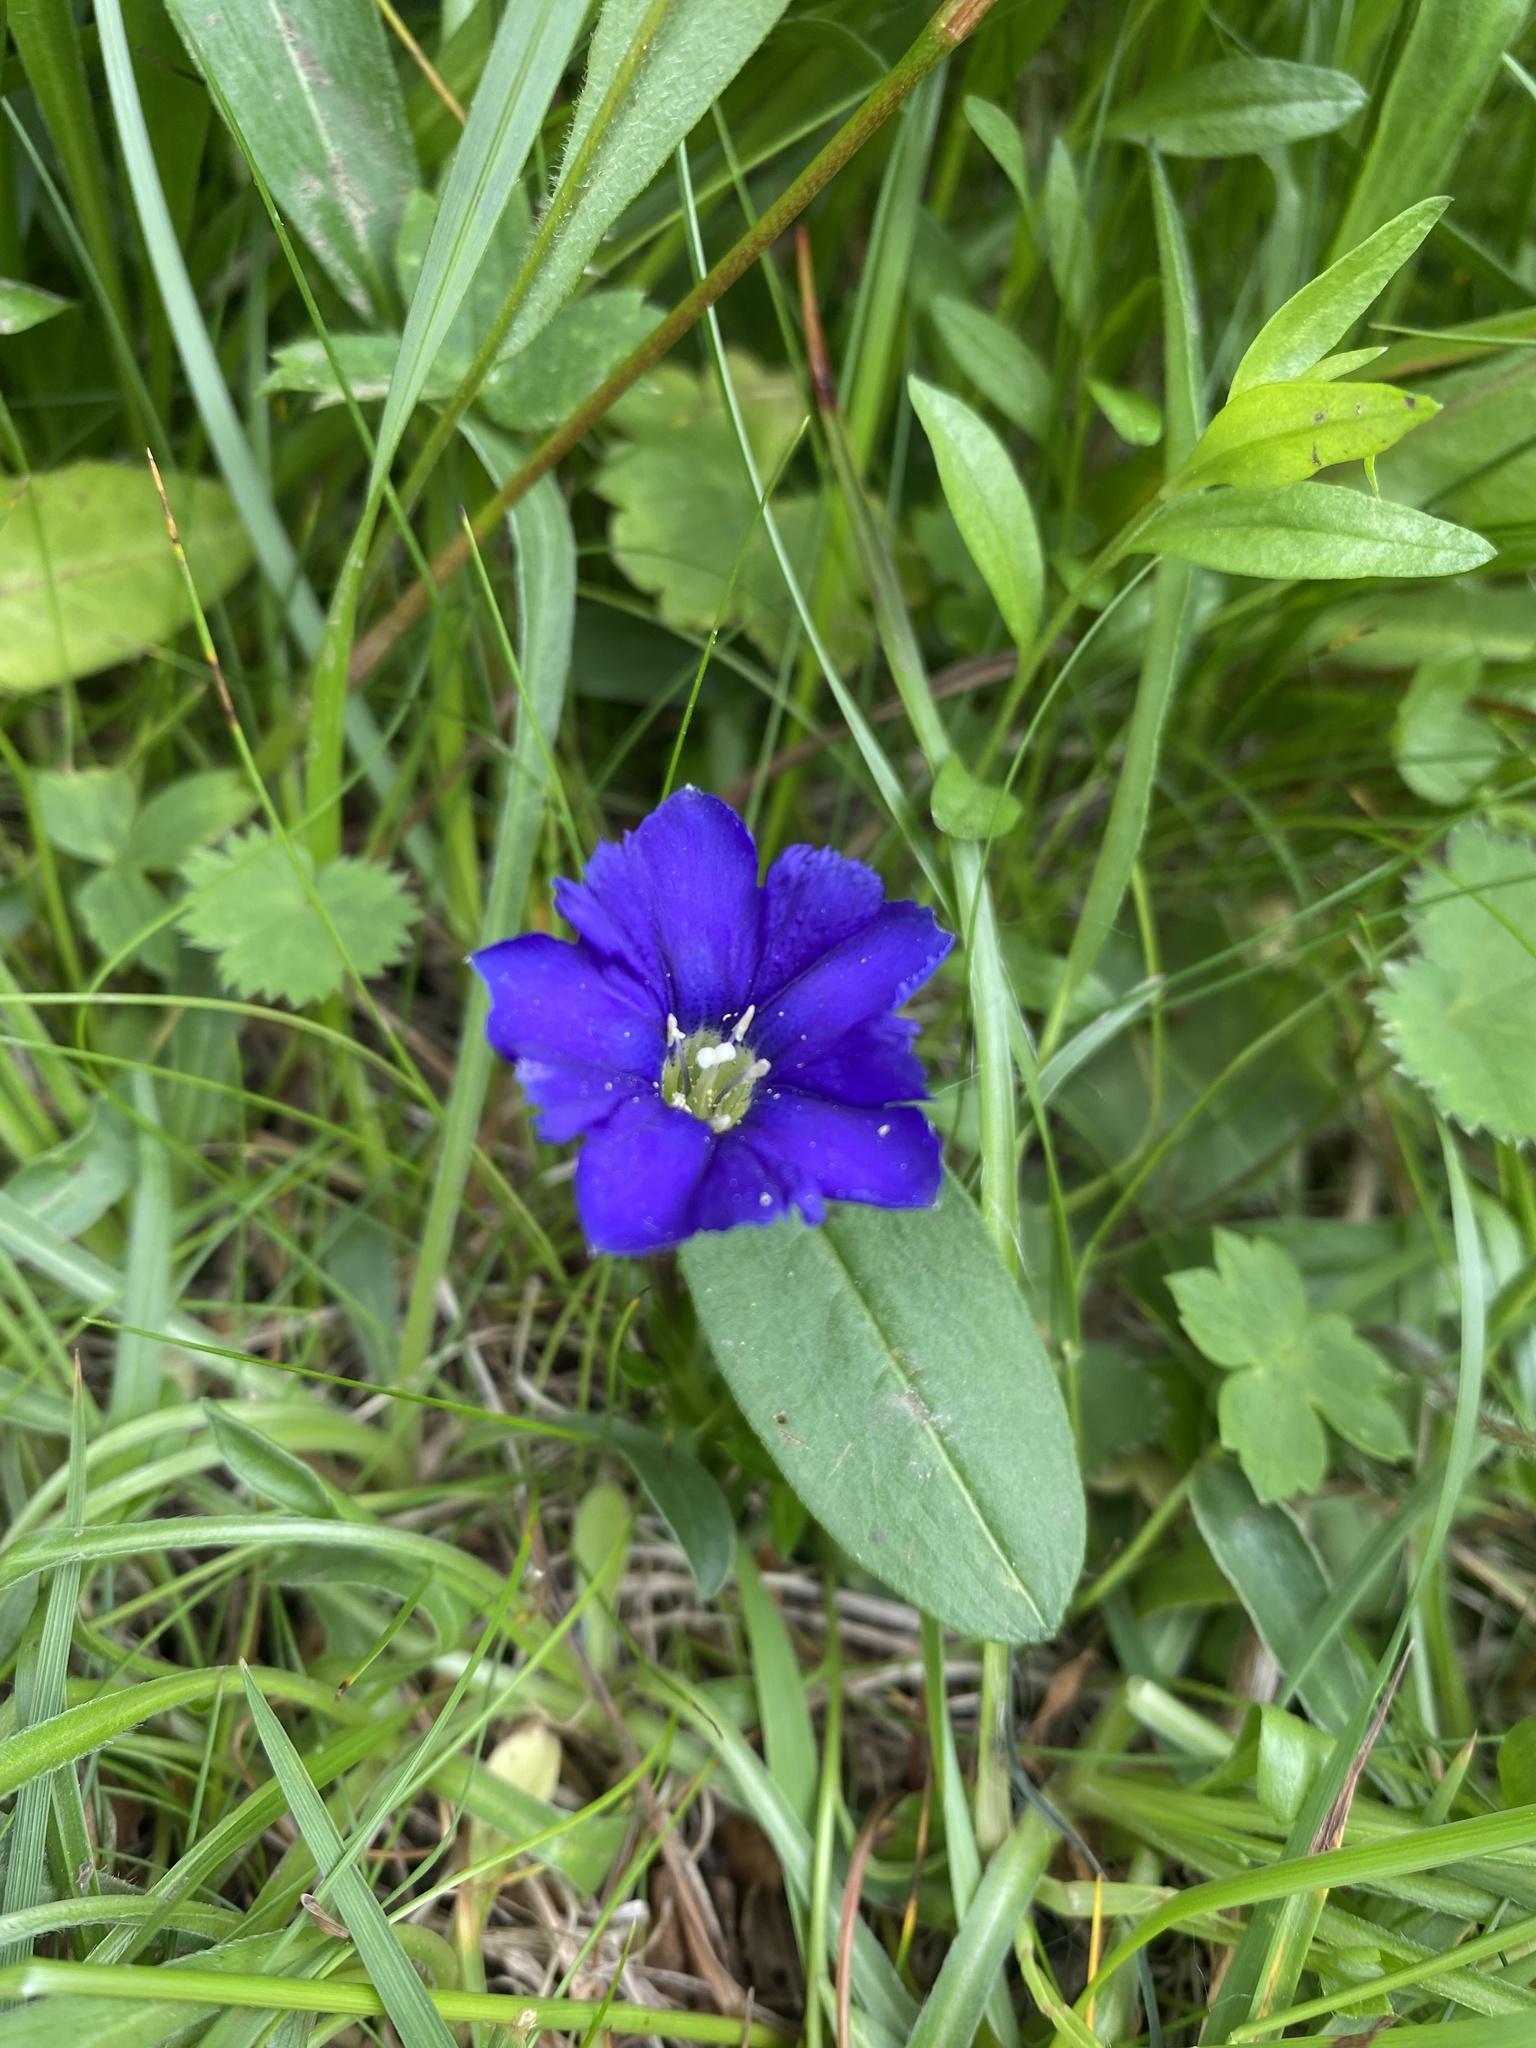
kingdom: Plantae
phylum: Tracheophyta
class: Magnoliopsida
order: Gentianales
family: Gentianaceae
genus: Gentiana
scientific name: Gentiana dshimilensis
